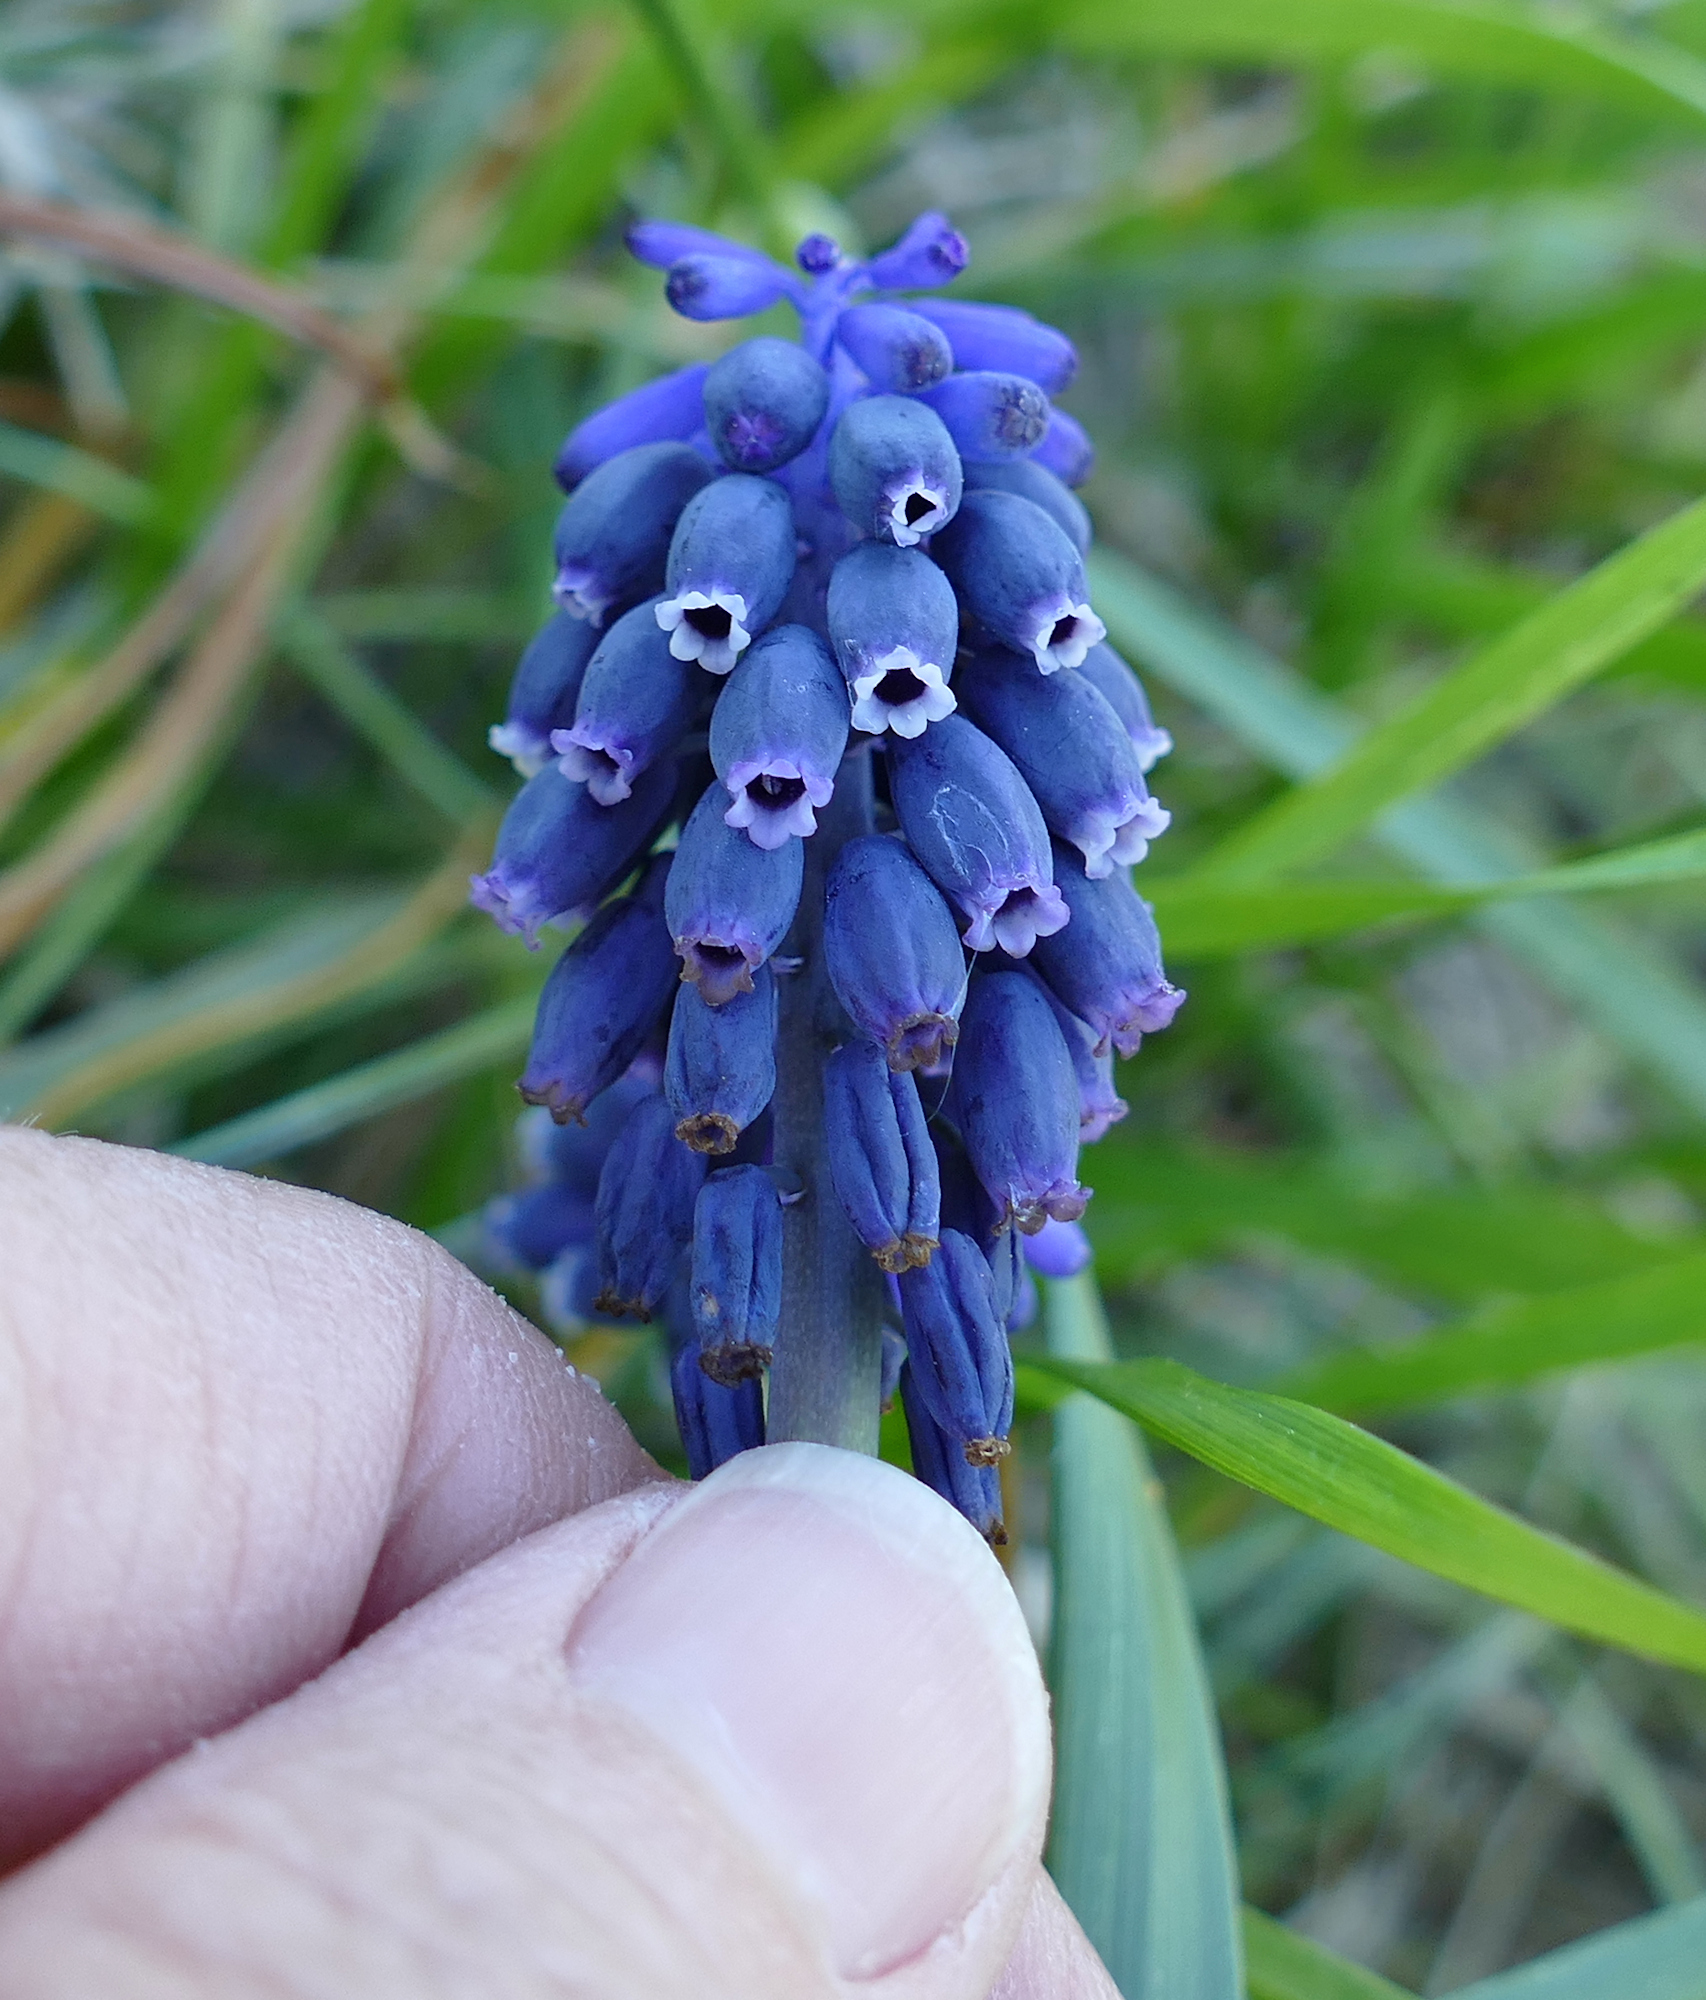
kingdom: Plantae
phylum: Tracheophyta
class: Liliopsida
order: Asparagales
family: Asparagaceae
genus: Muscari
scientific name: Muscari neglectum
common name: Grape-hyacinth
